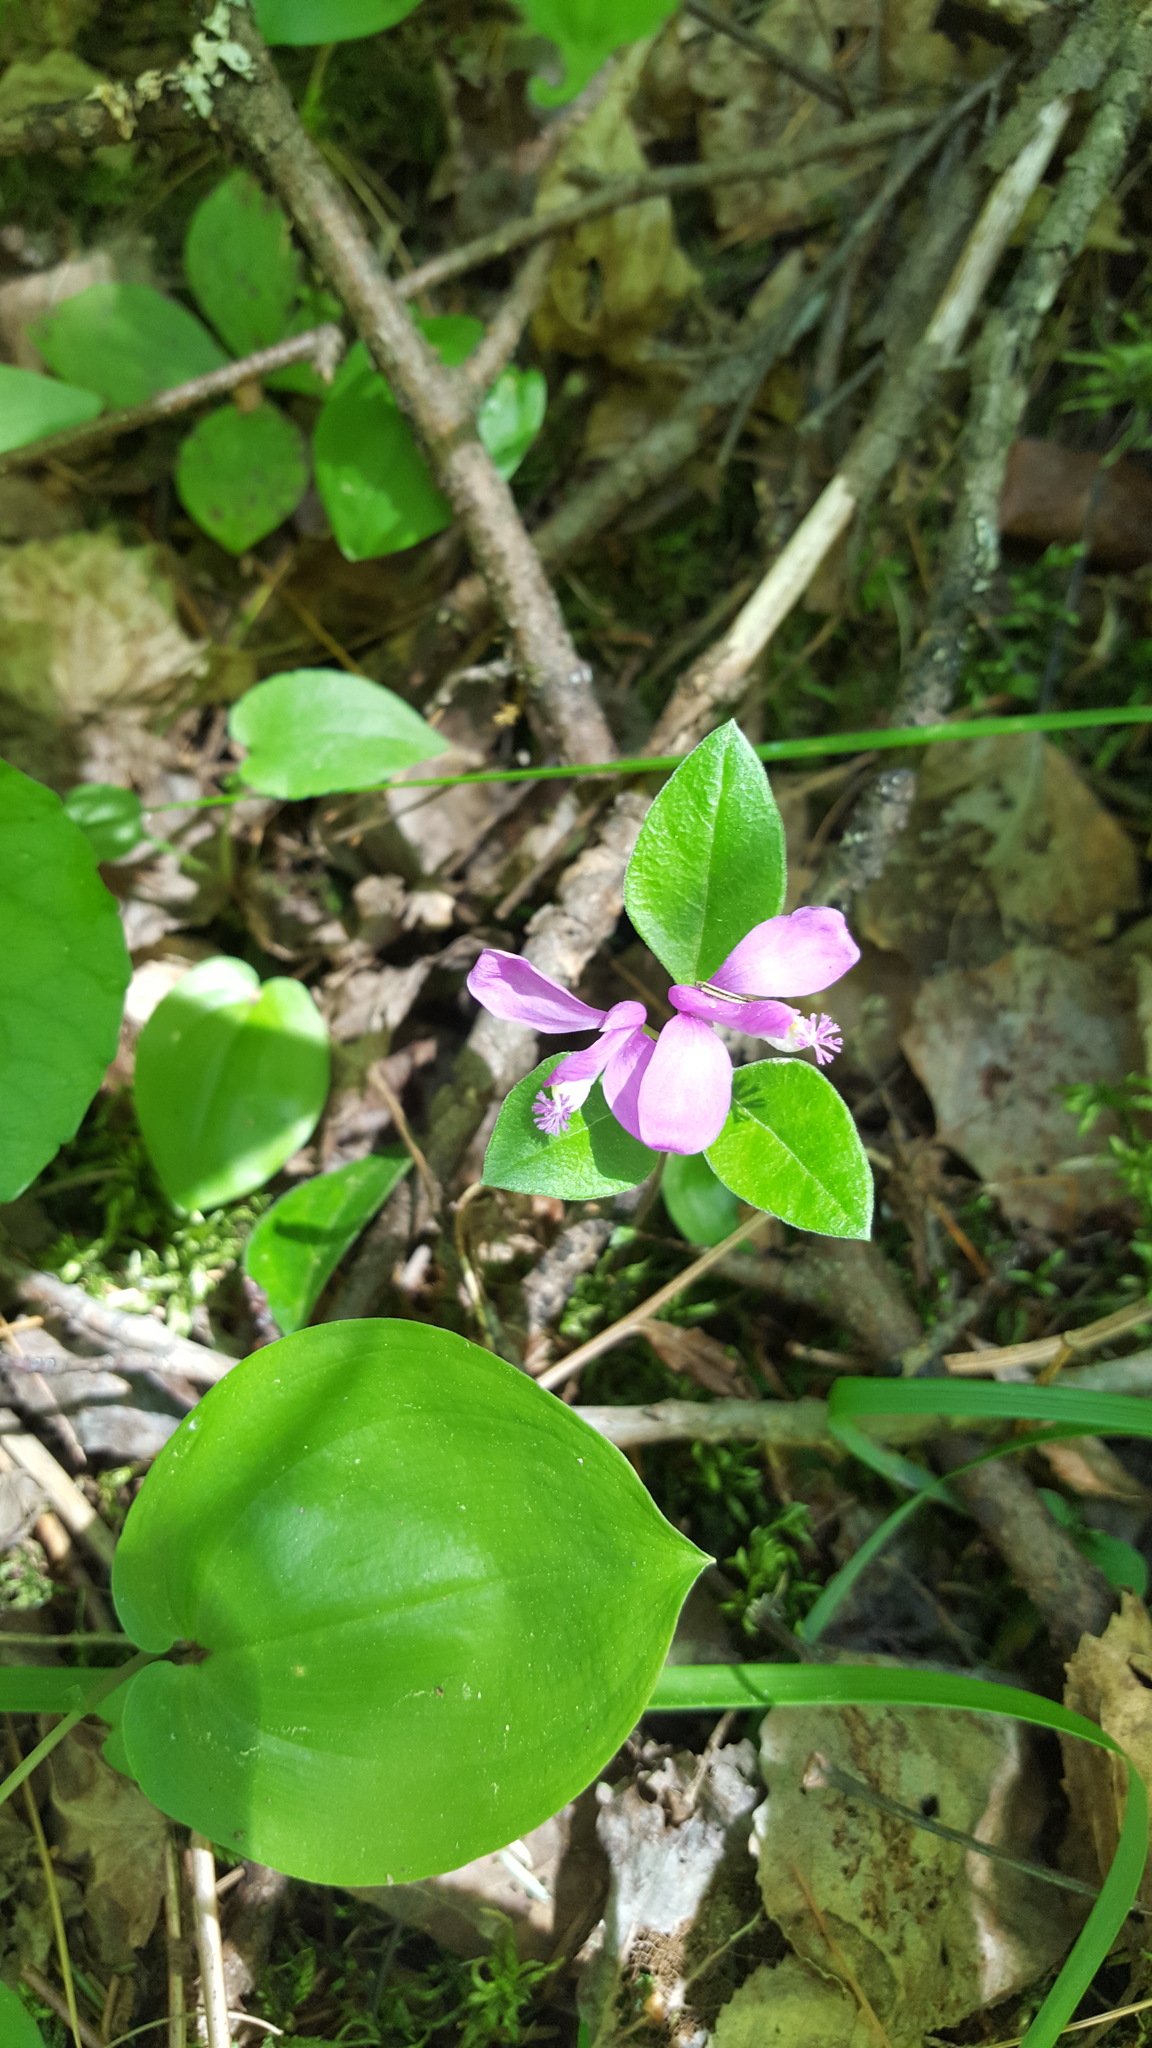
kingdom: Plantae
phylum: Tracheophyta
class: Magnoliopsida
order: Fabales
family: Polygalaceae
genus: Polygaloides
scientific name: Polygaloides paucifolia
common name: Bird-on-the-wing
